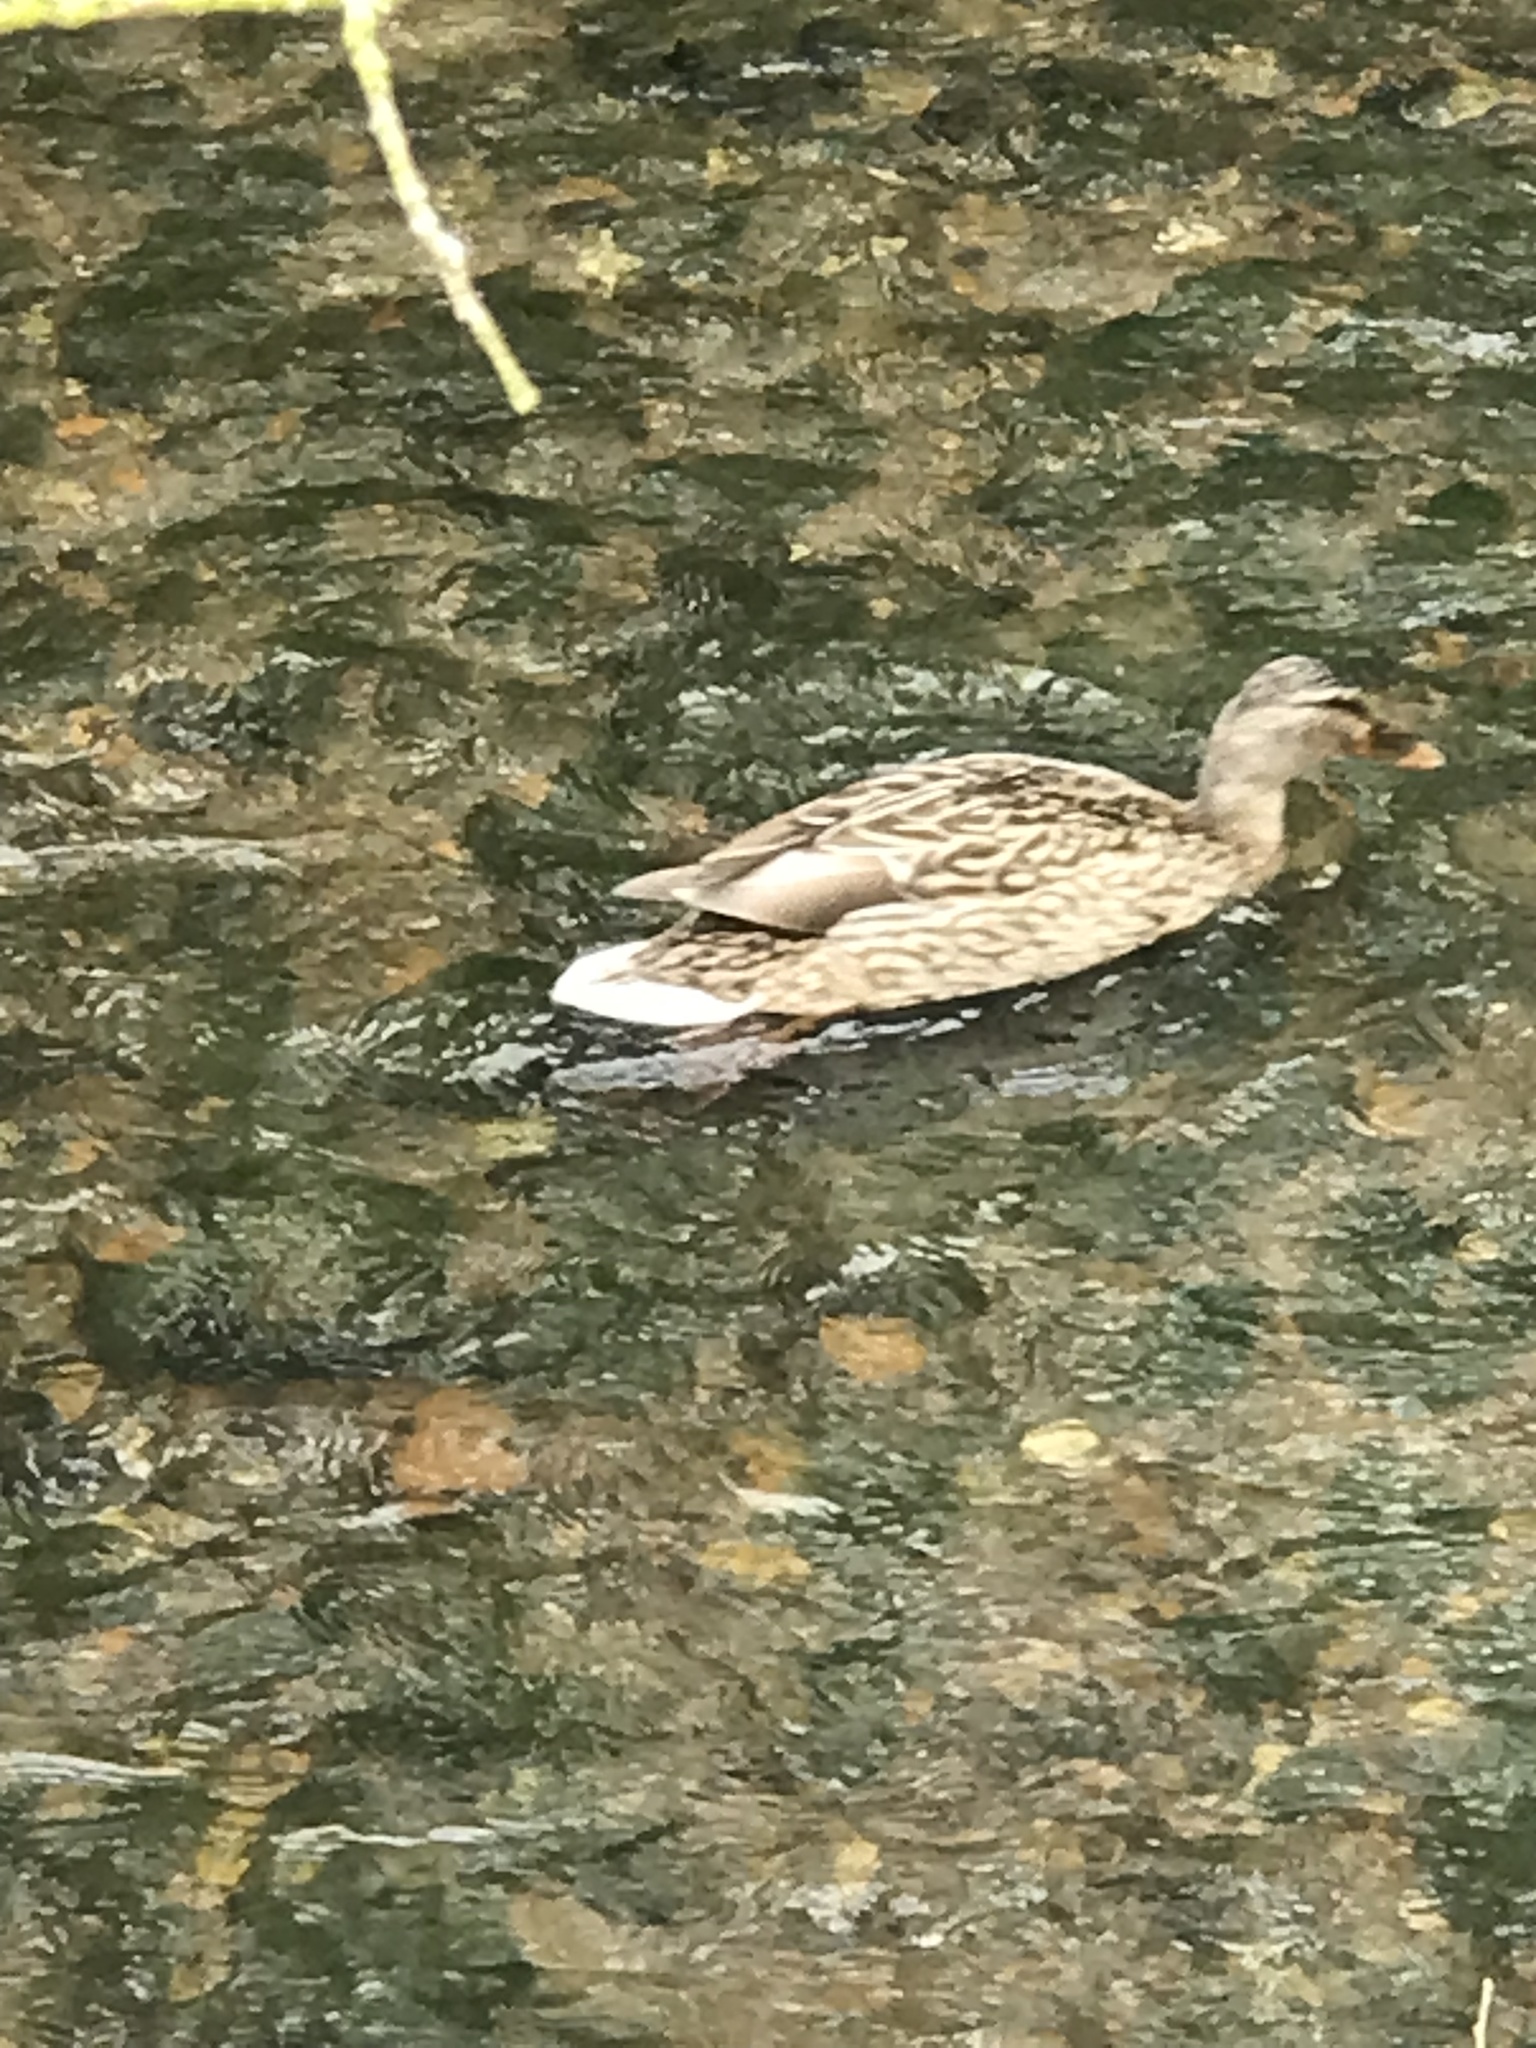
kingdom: Animalia
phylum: Chordata
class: Aves
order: Anseriformes
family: Anatidae
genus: Anas
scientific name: Anas platyrhynchos
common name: Mallard
